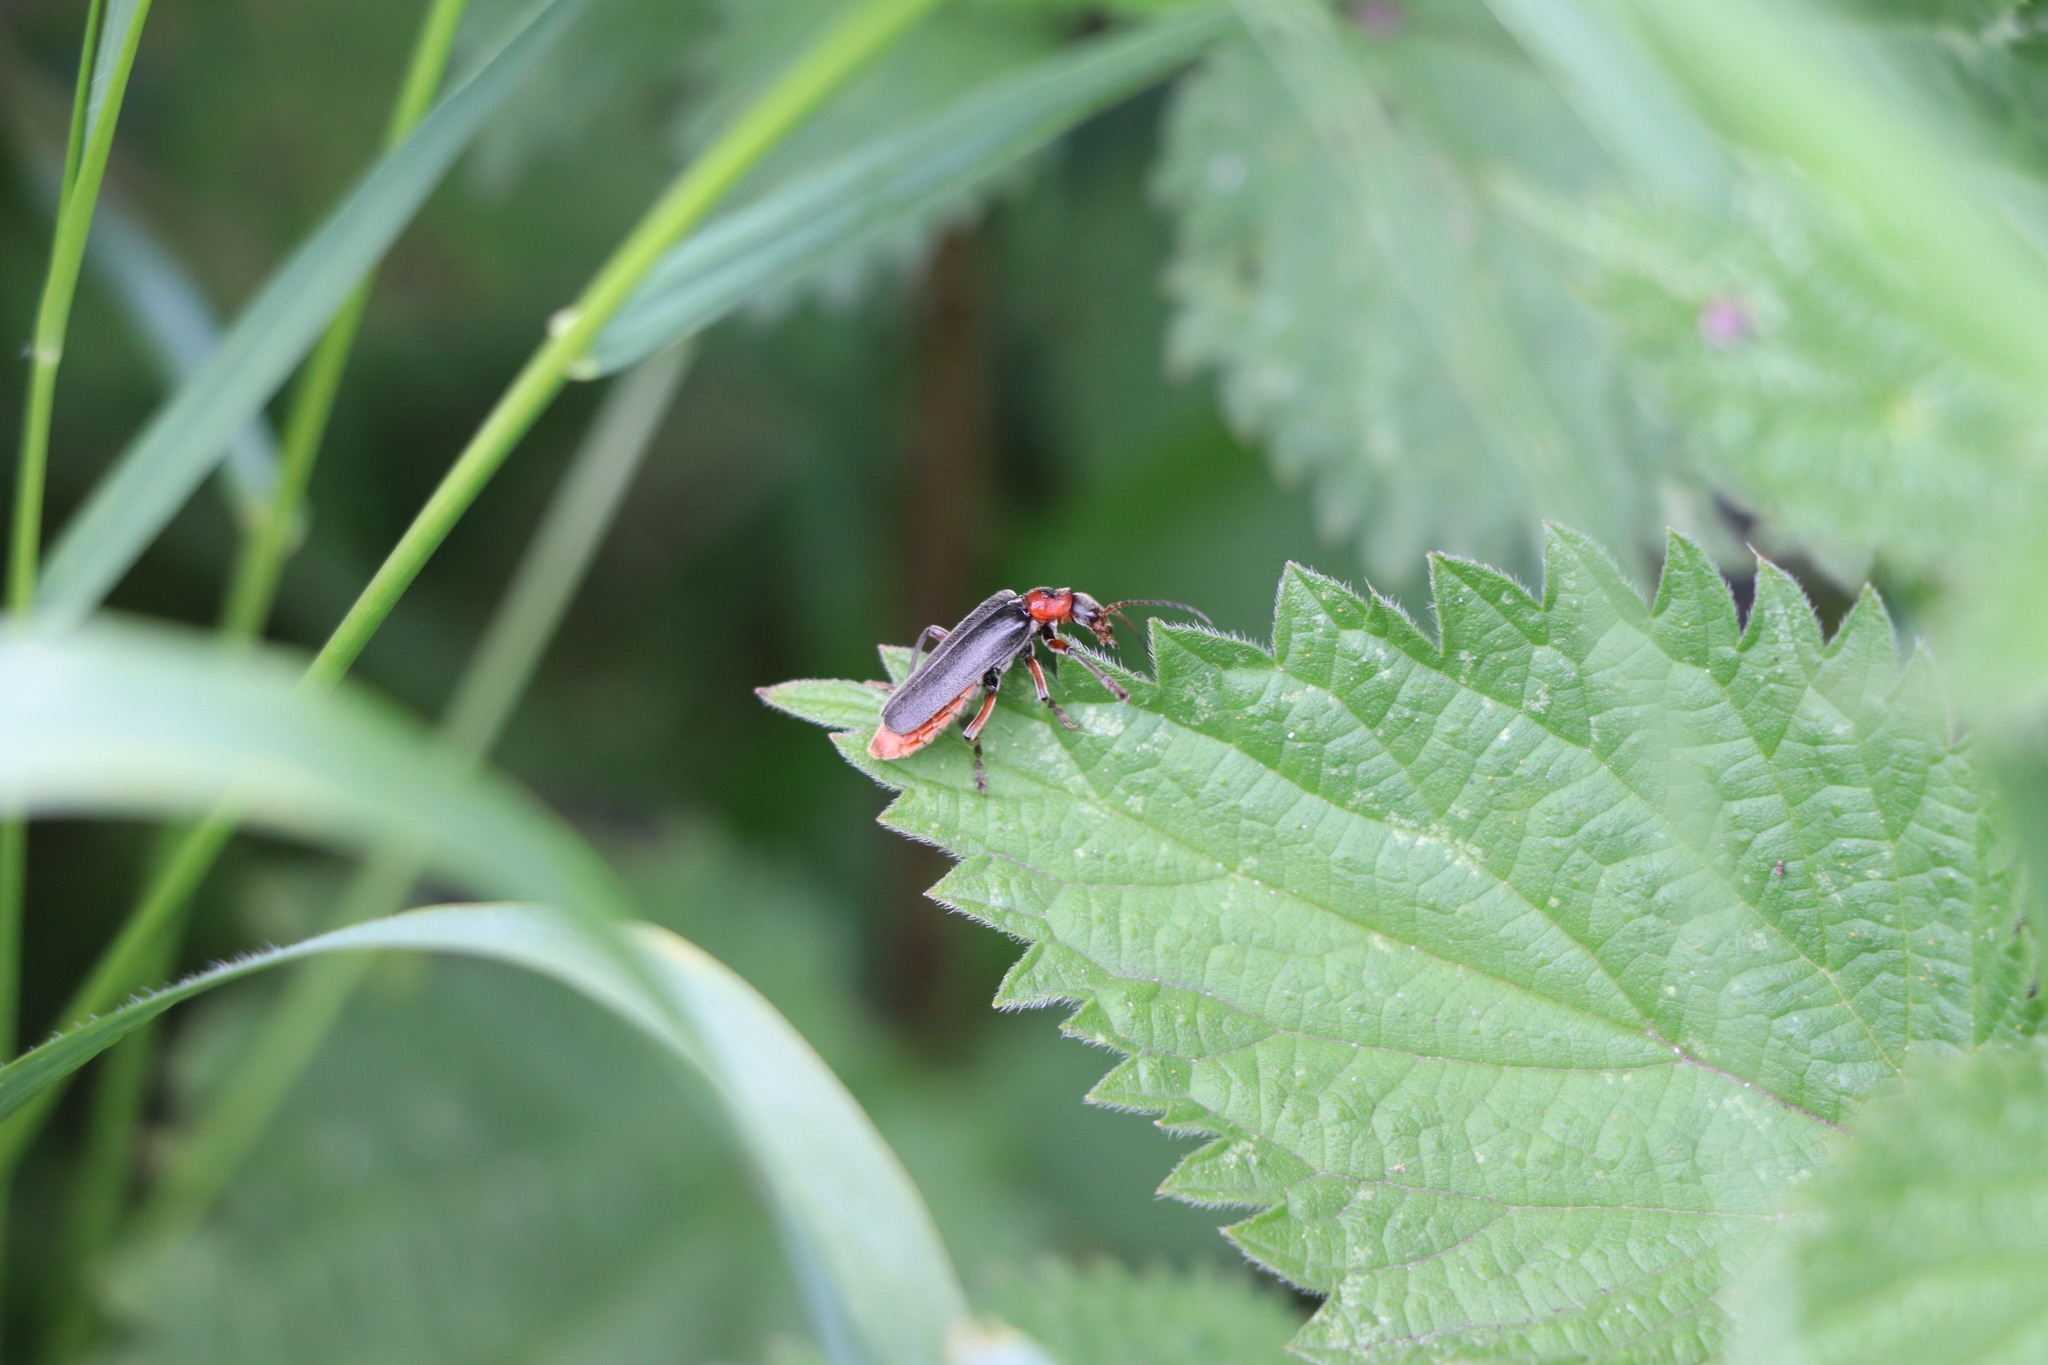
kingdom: Animalia
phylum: Arthropoda
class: Insecta
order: Coleoptera
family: Cantharidae
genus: Cantharis
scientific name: Cantharis rustica
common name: Soldier beetle
